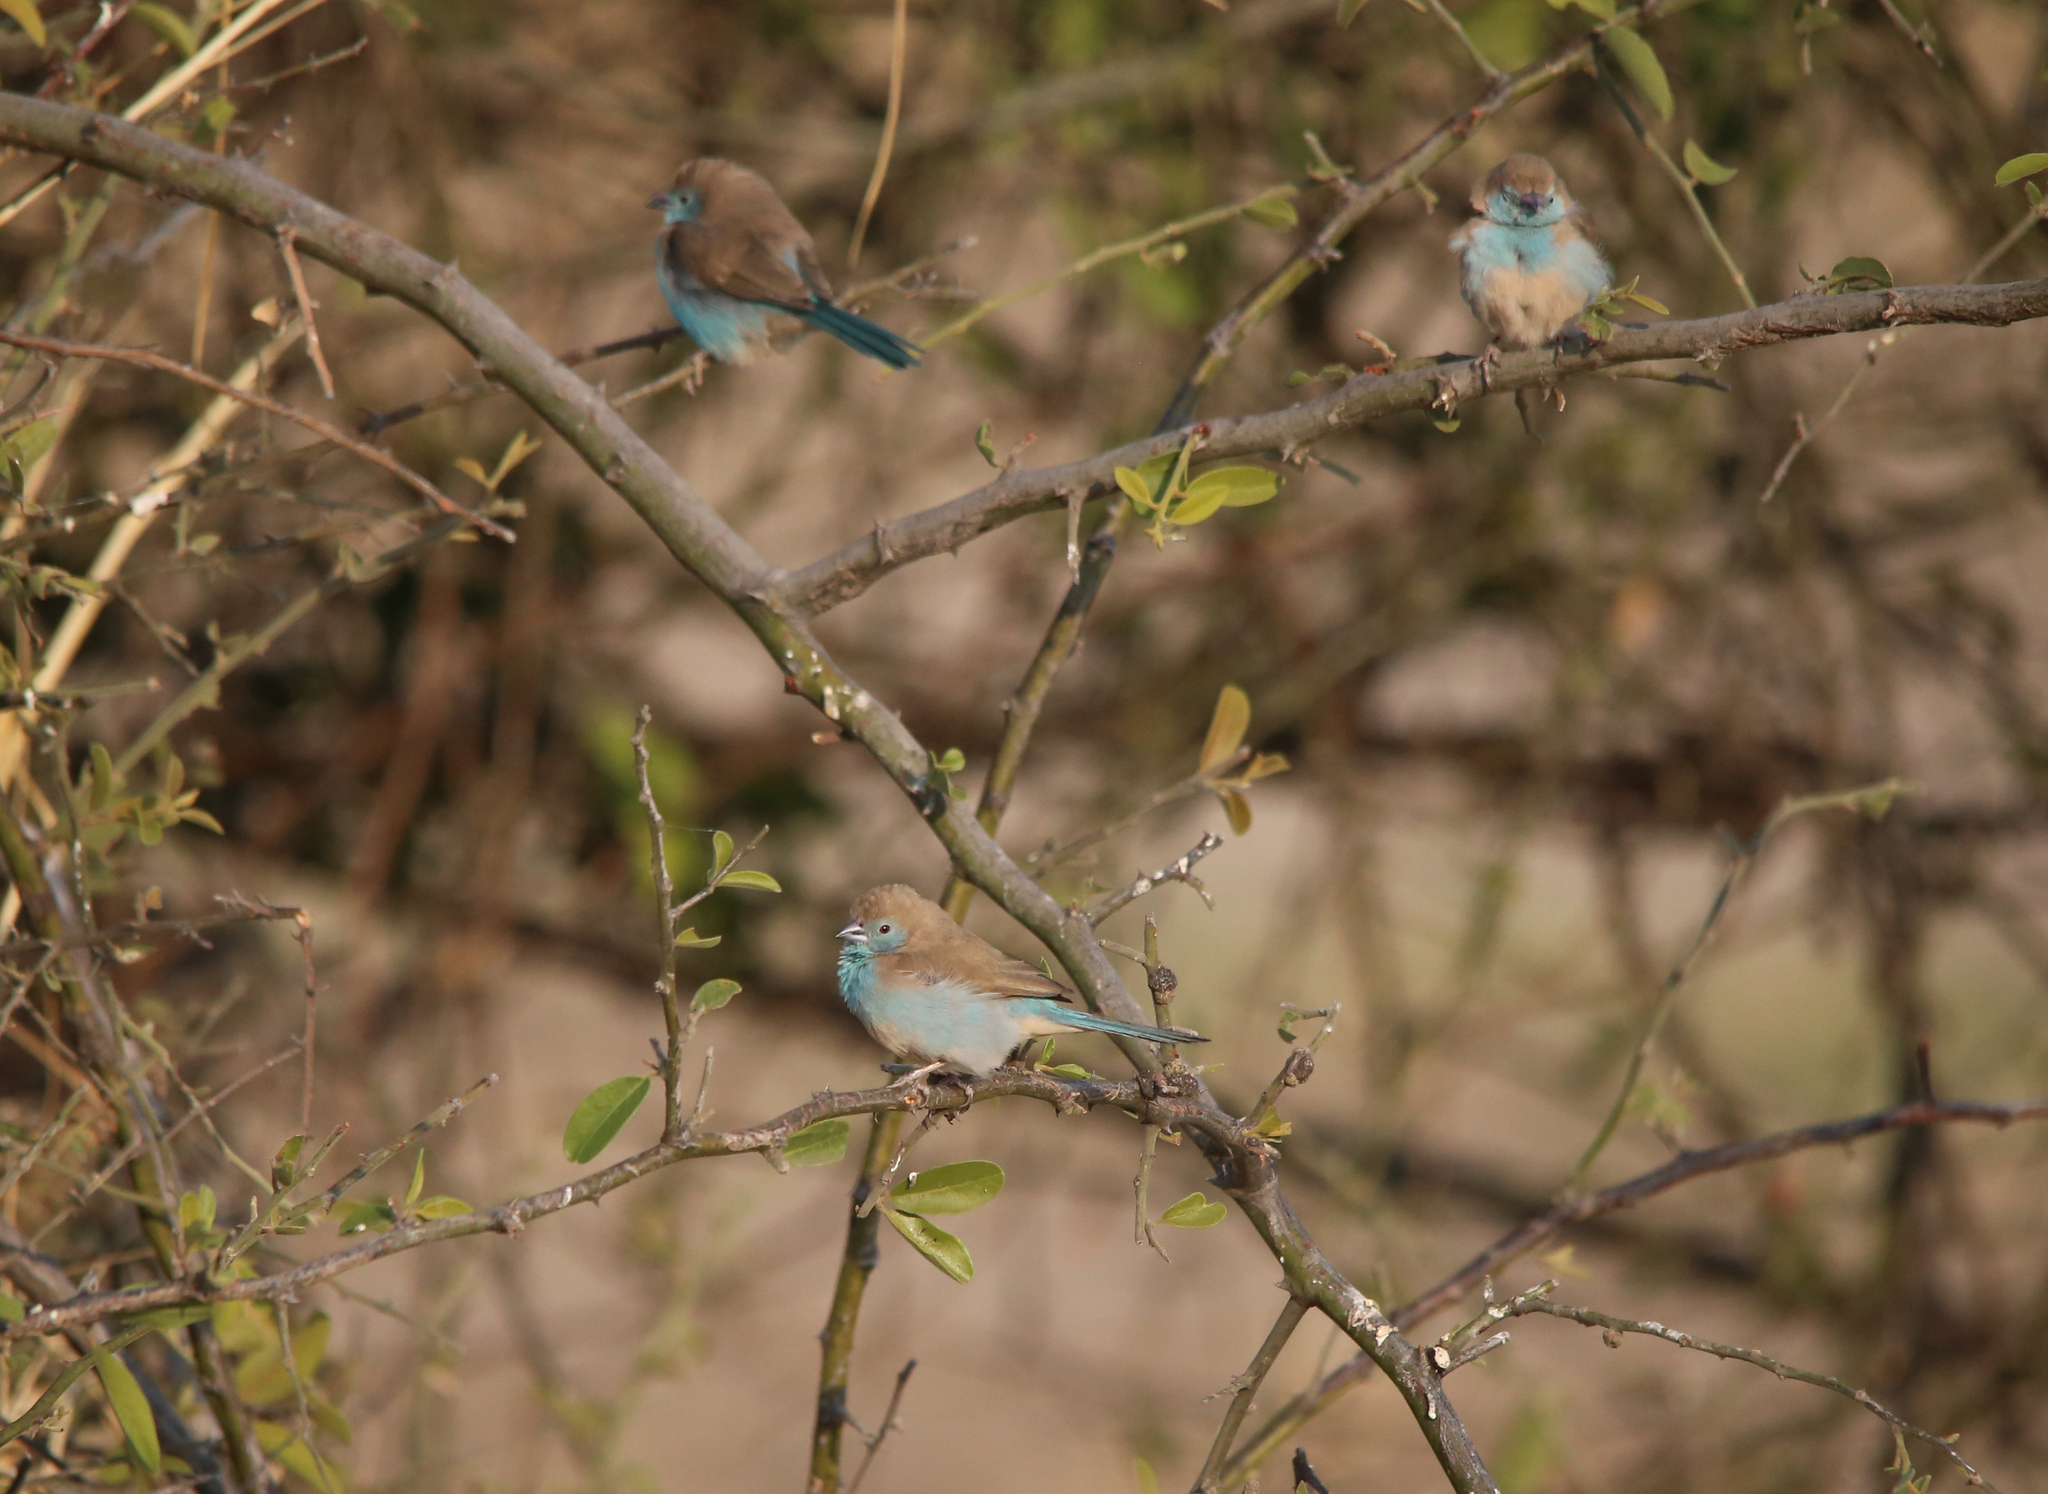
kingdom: Animalia
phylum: Chordata
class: Aves
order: Passeriformes
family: Estrildidae
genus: Uraeginthus
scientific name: Uraeginthus angolensis
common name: Blue waxbill
